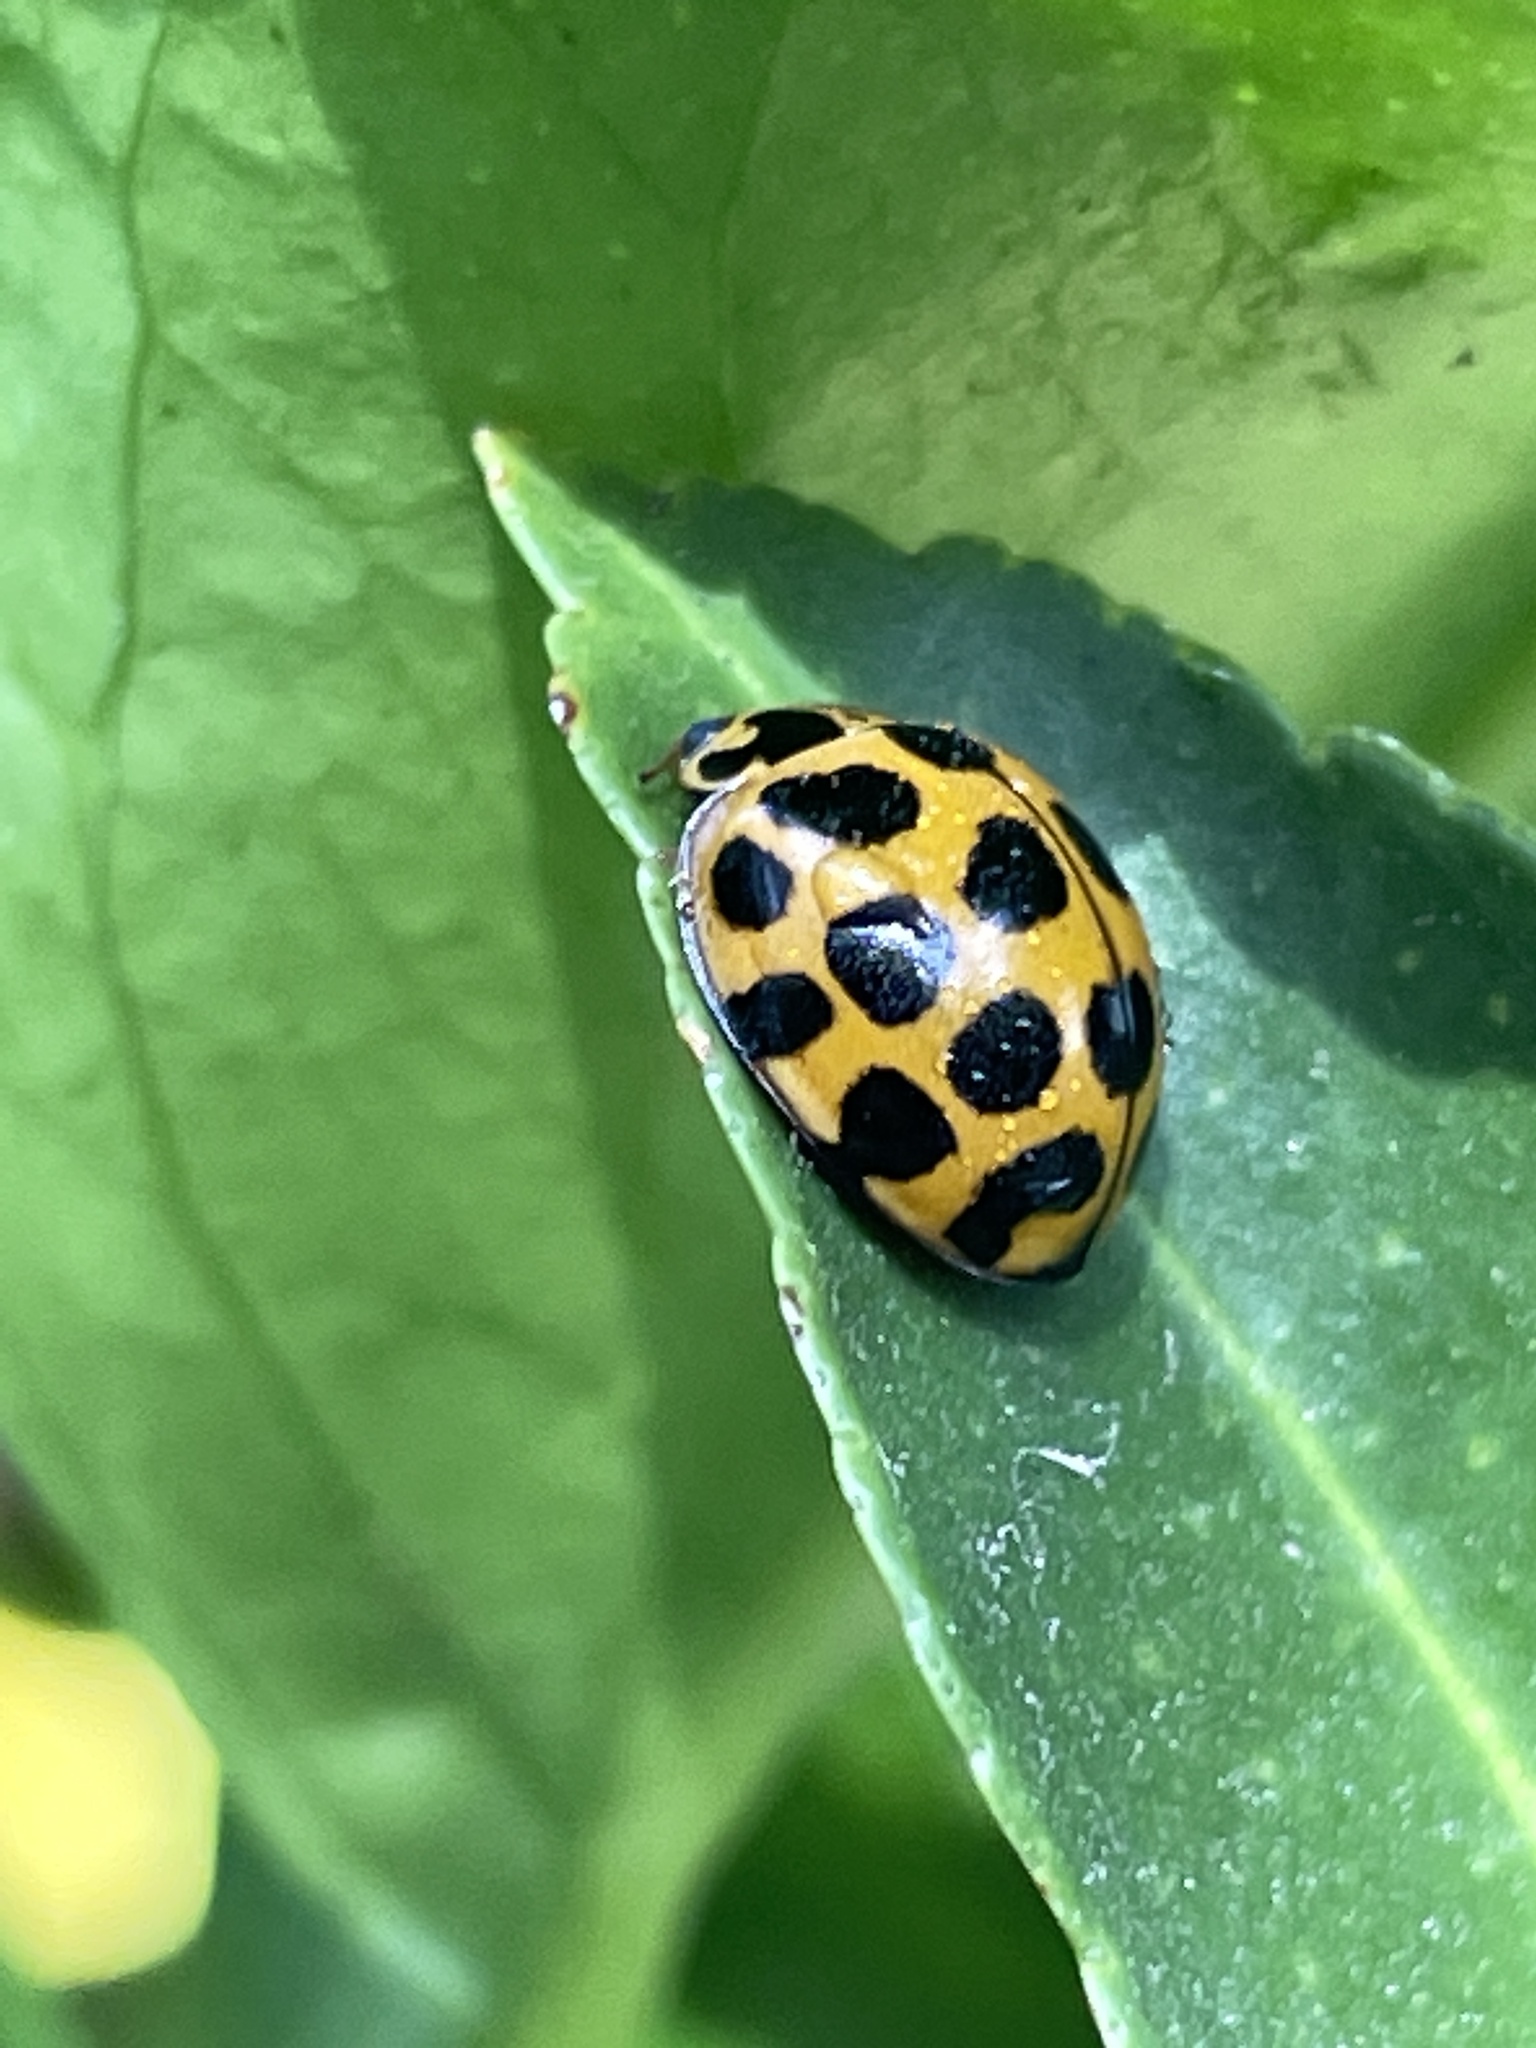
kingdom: Animalia
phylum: Arthropoda
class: Insecta
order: Coleoptera
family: Coccinellidae
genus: Harmonia
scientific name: Harmonia conformis
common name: Common spotted ladybird beetle
